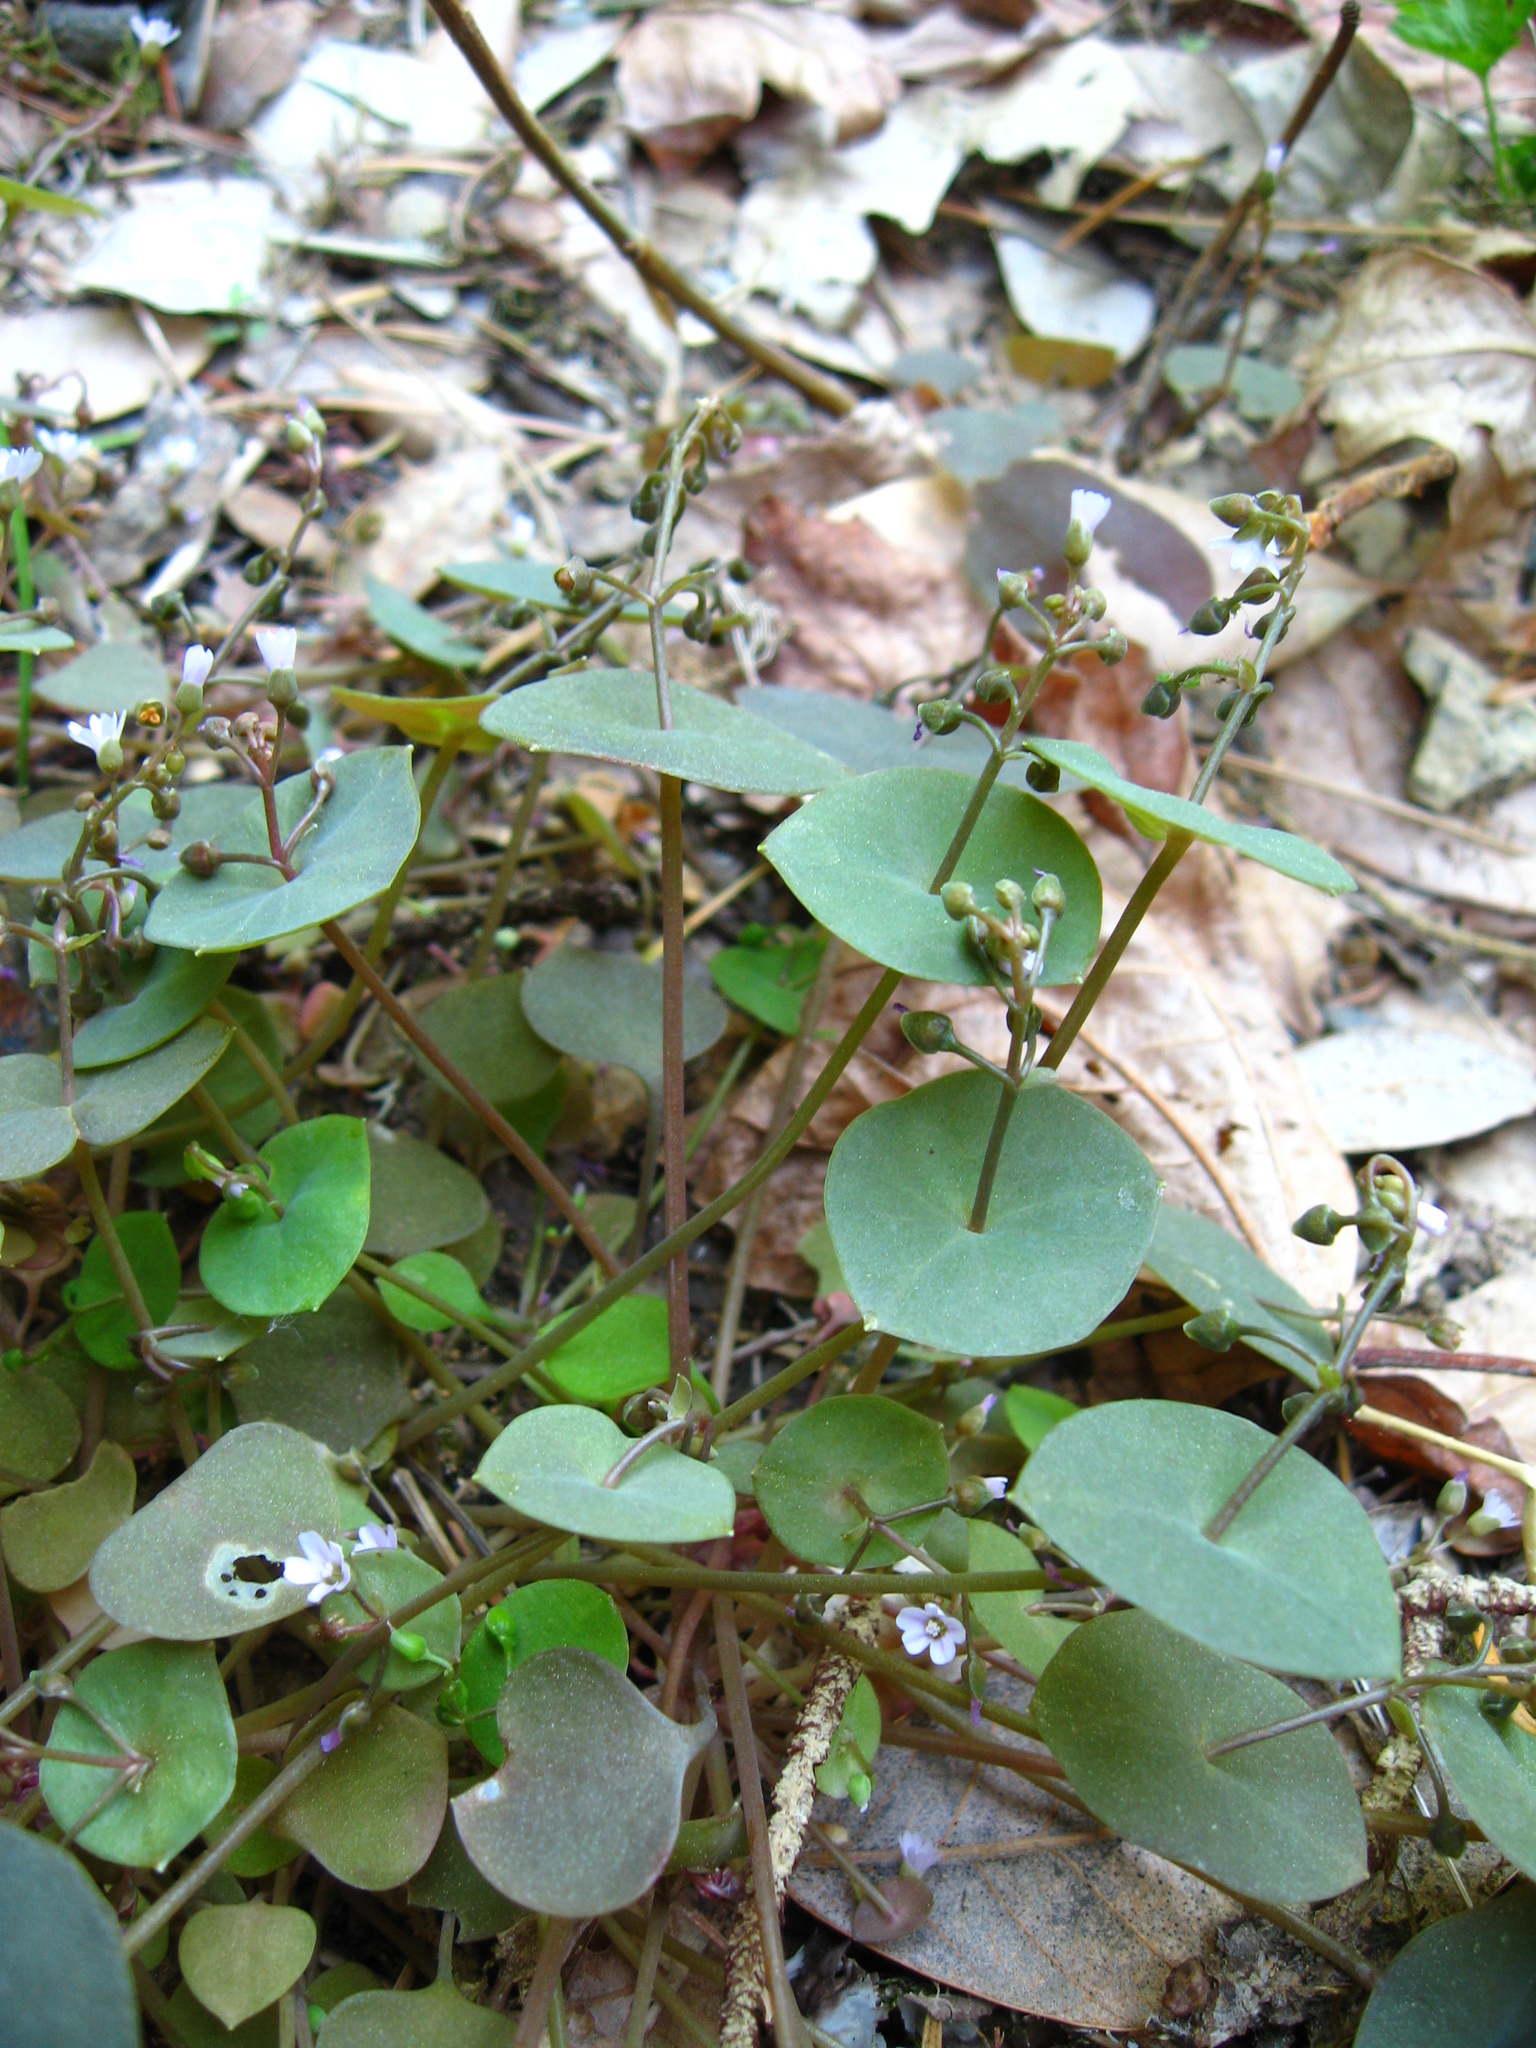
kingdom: Plantae
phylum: Tracheophyta
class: Magnoliopsida
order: Caryophyllales
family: Montiaceae
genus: Claytonia
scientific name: Claytonia perfoliata
